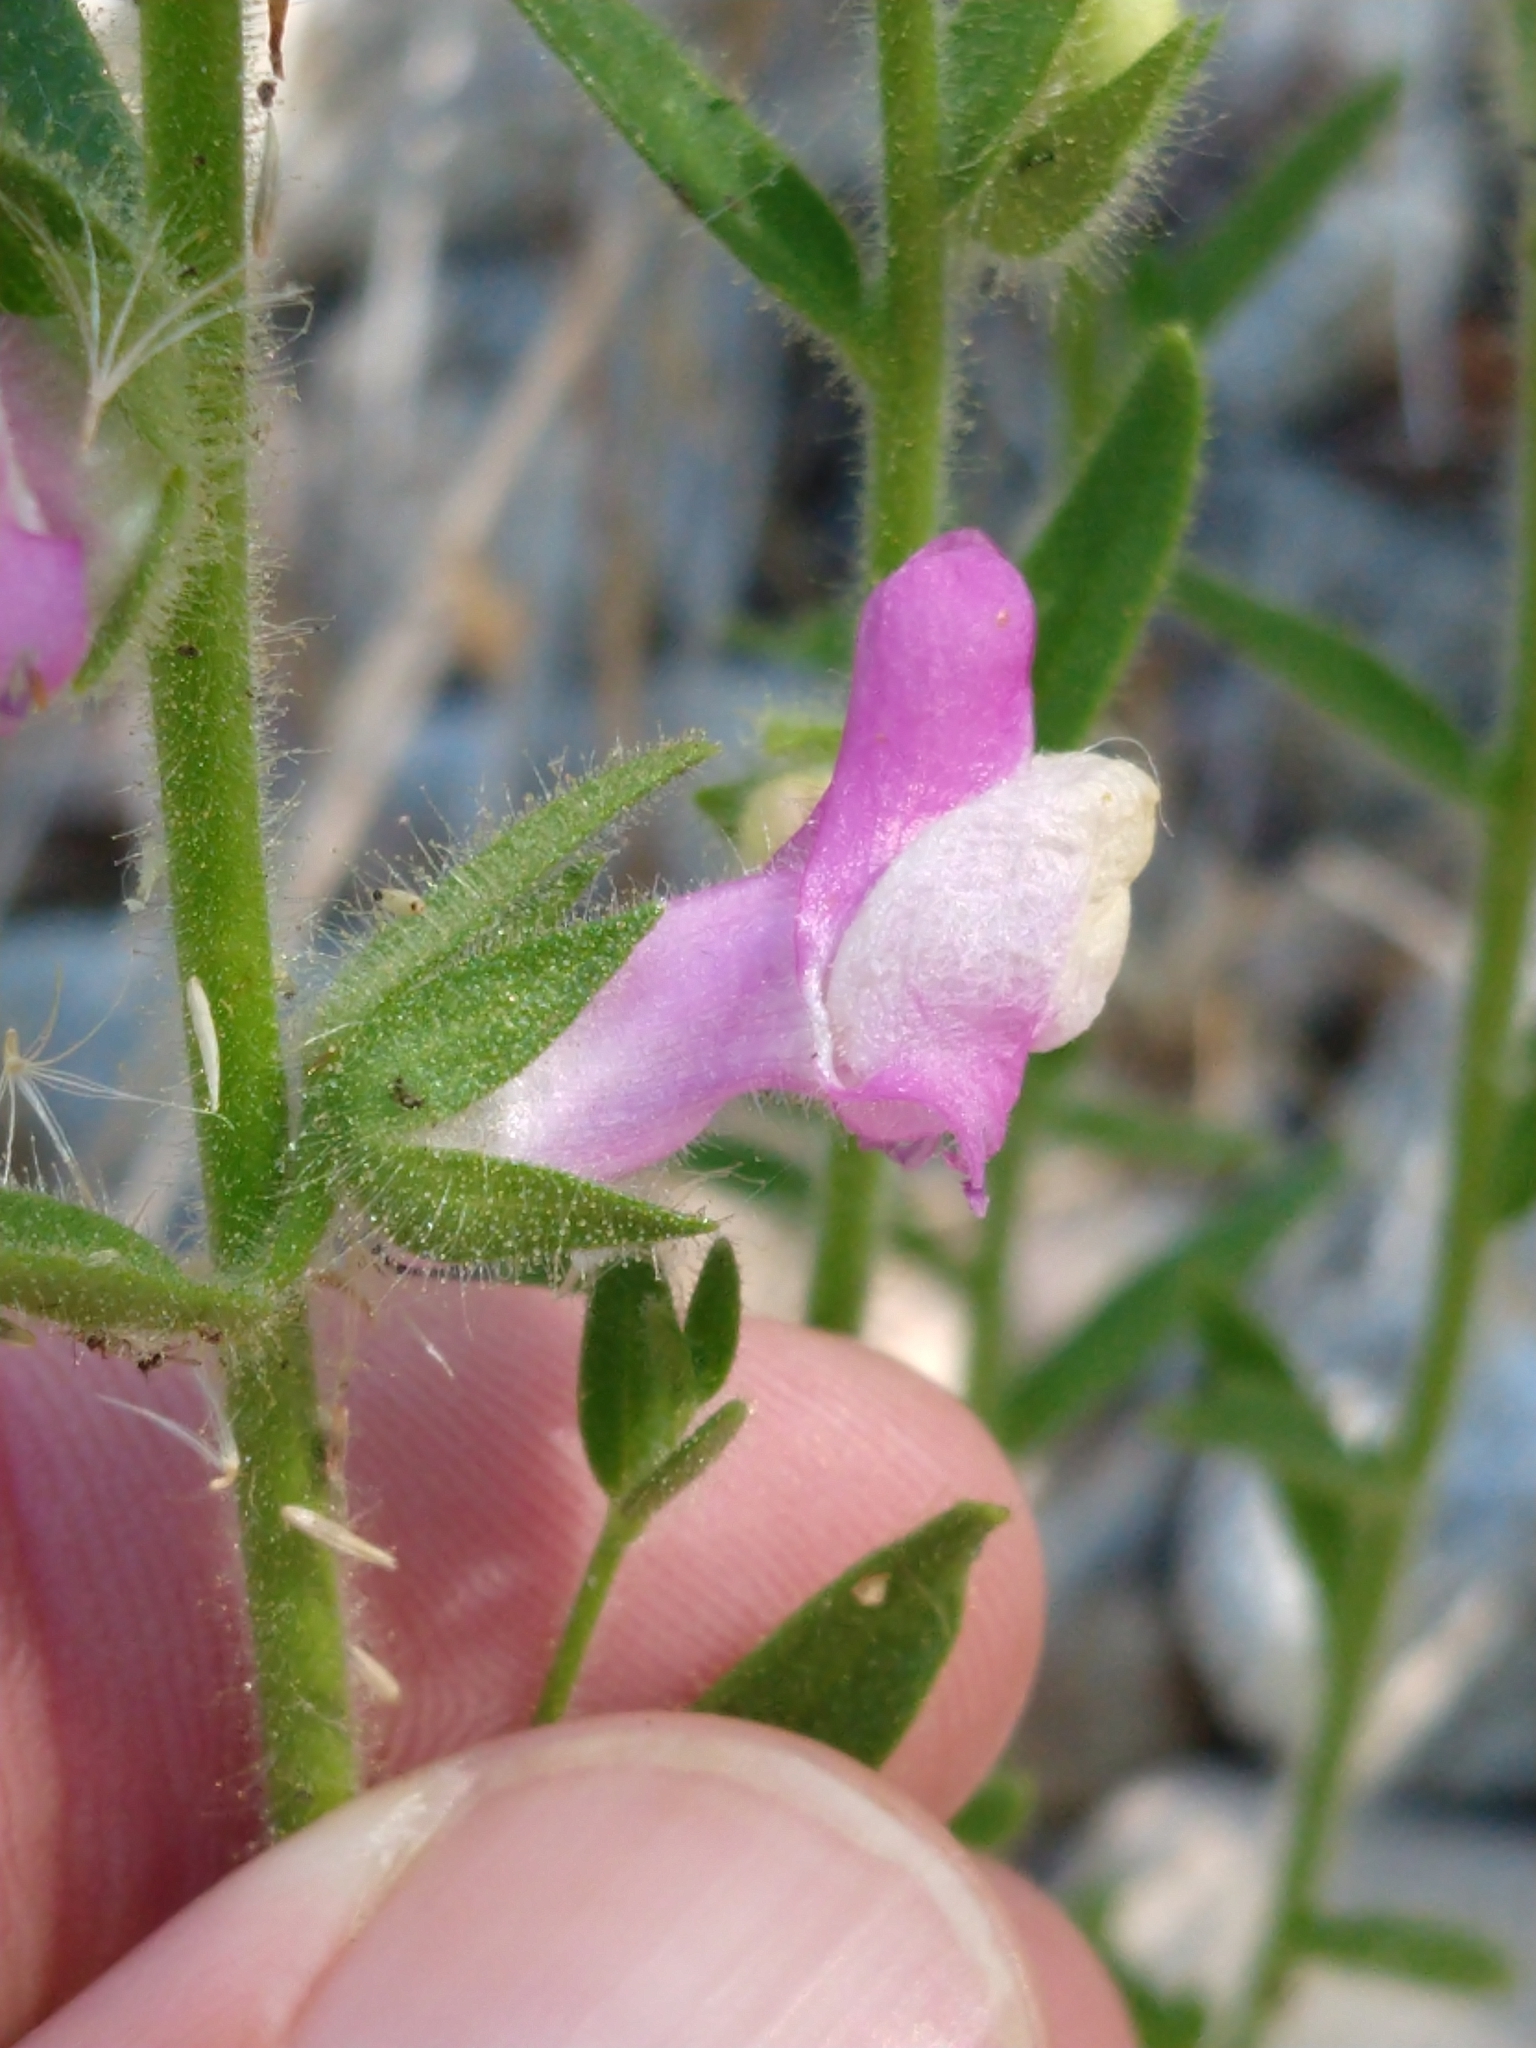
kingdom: Plantae
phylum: Tracheophyta
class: Magnoliopsida
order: Lamiales
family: Plantaginaceae
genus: Sairocarpus
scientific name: Sairocarpus multiflorus
